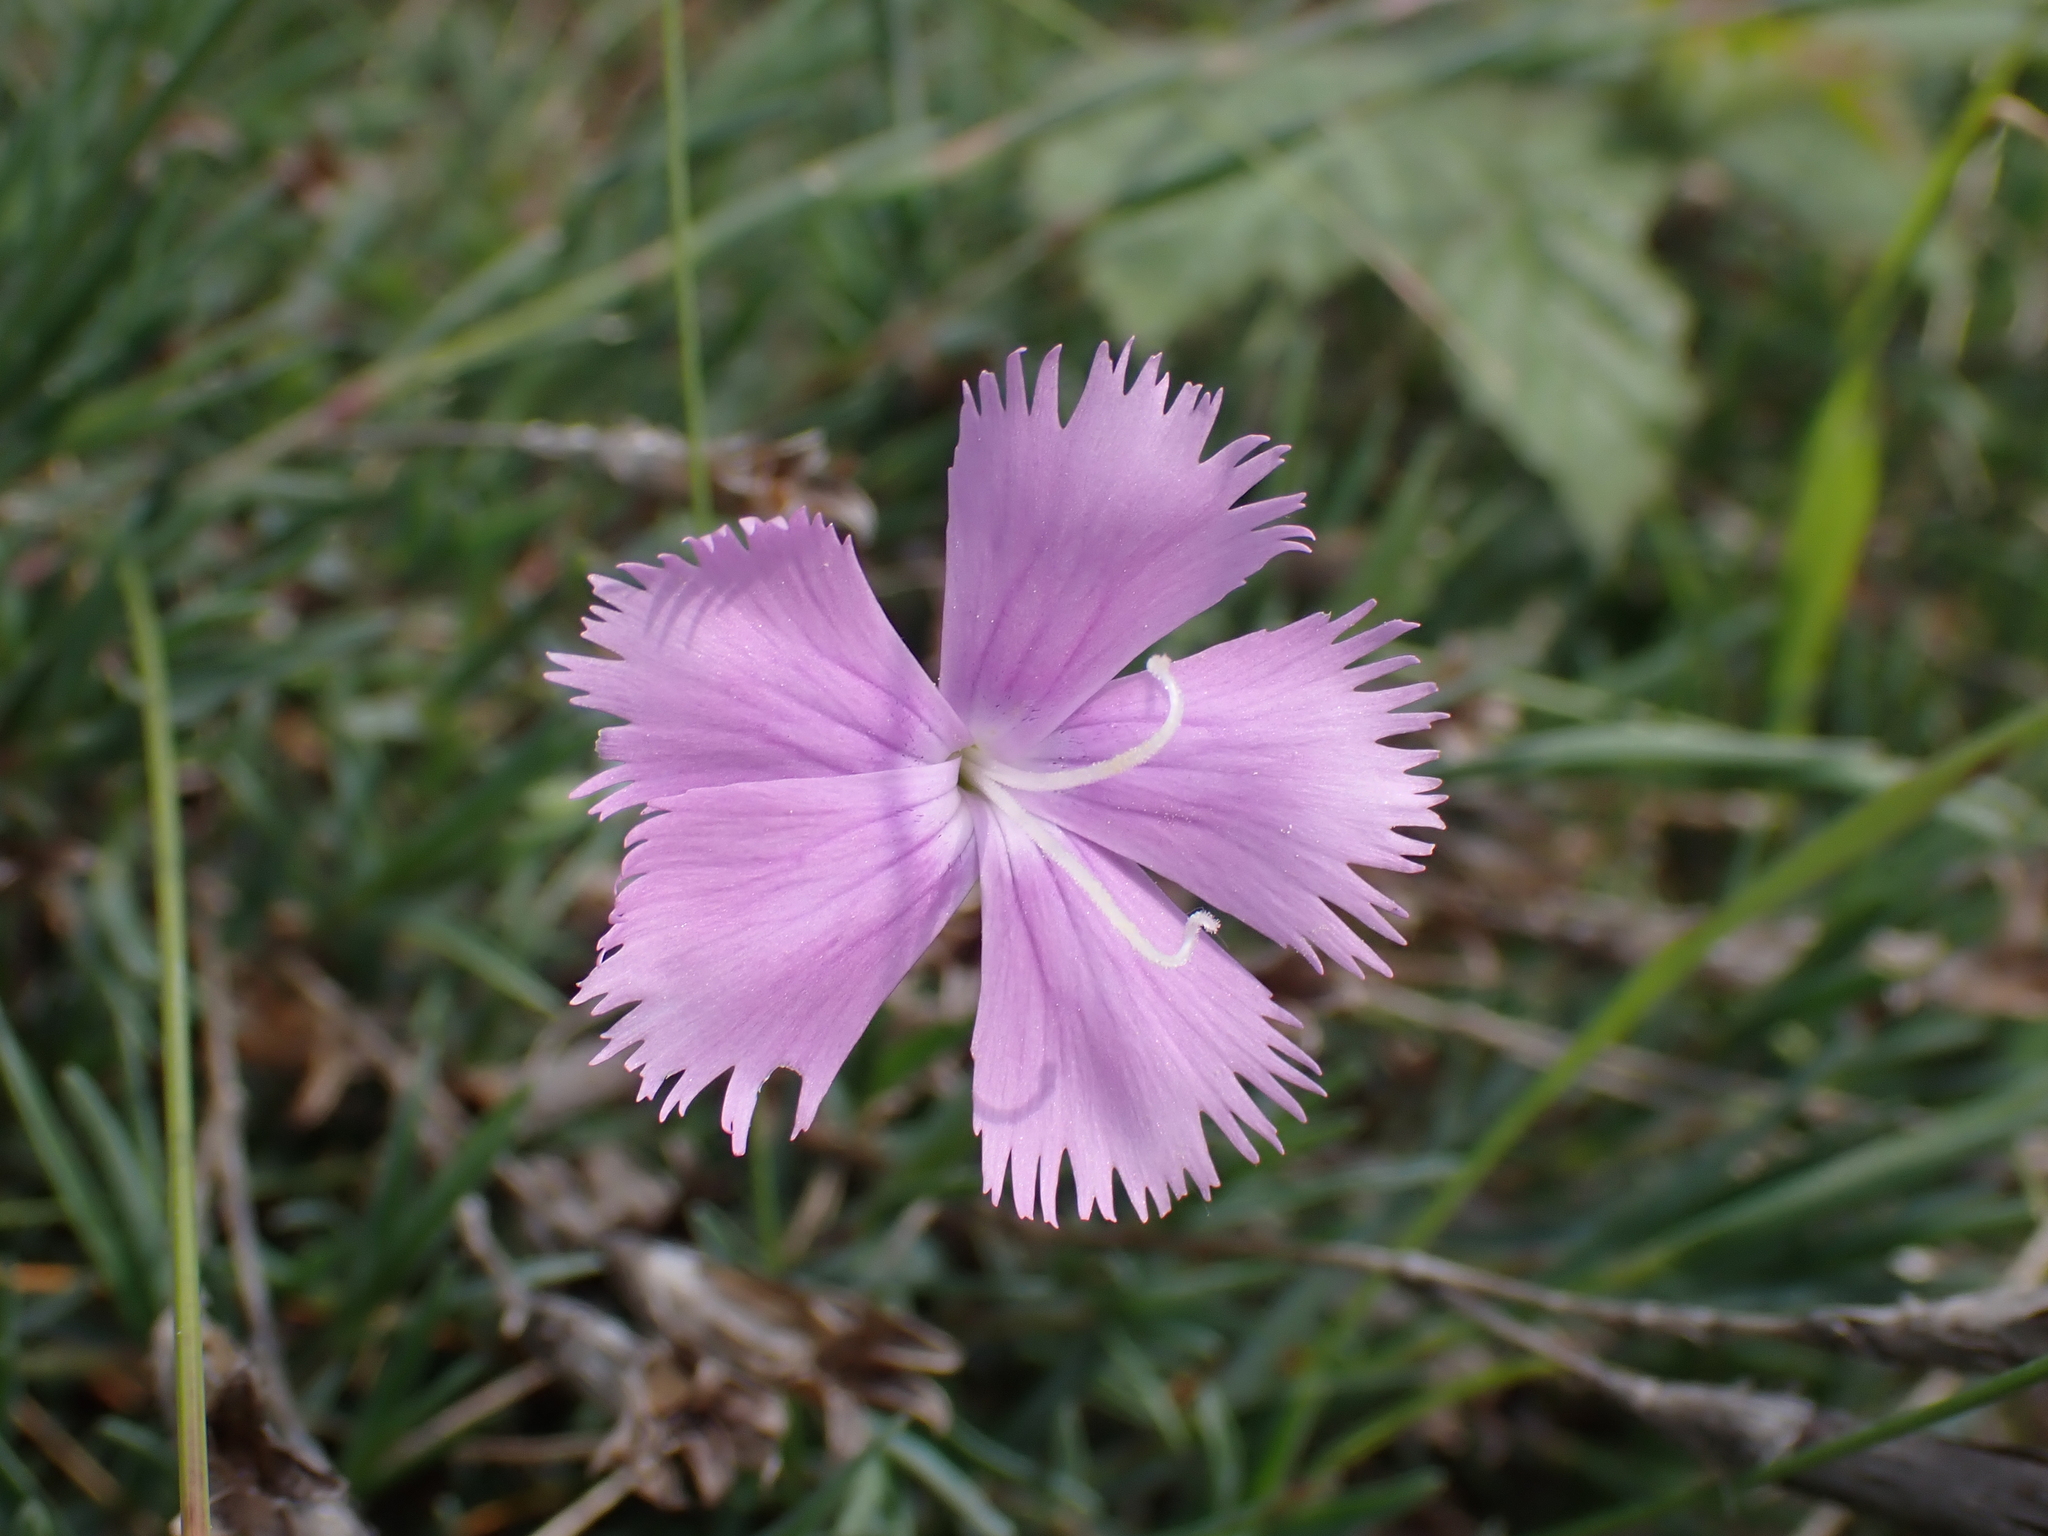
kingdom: Plantae
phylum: Tracheophyta
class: Magnoliopsida
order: Caryophyllales
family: Caryophyllaceae
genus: Dianthus
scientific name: Dianthus gallicus
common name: Jersey pink
